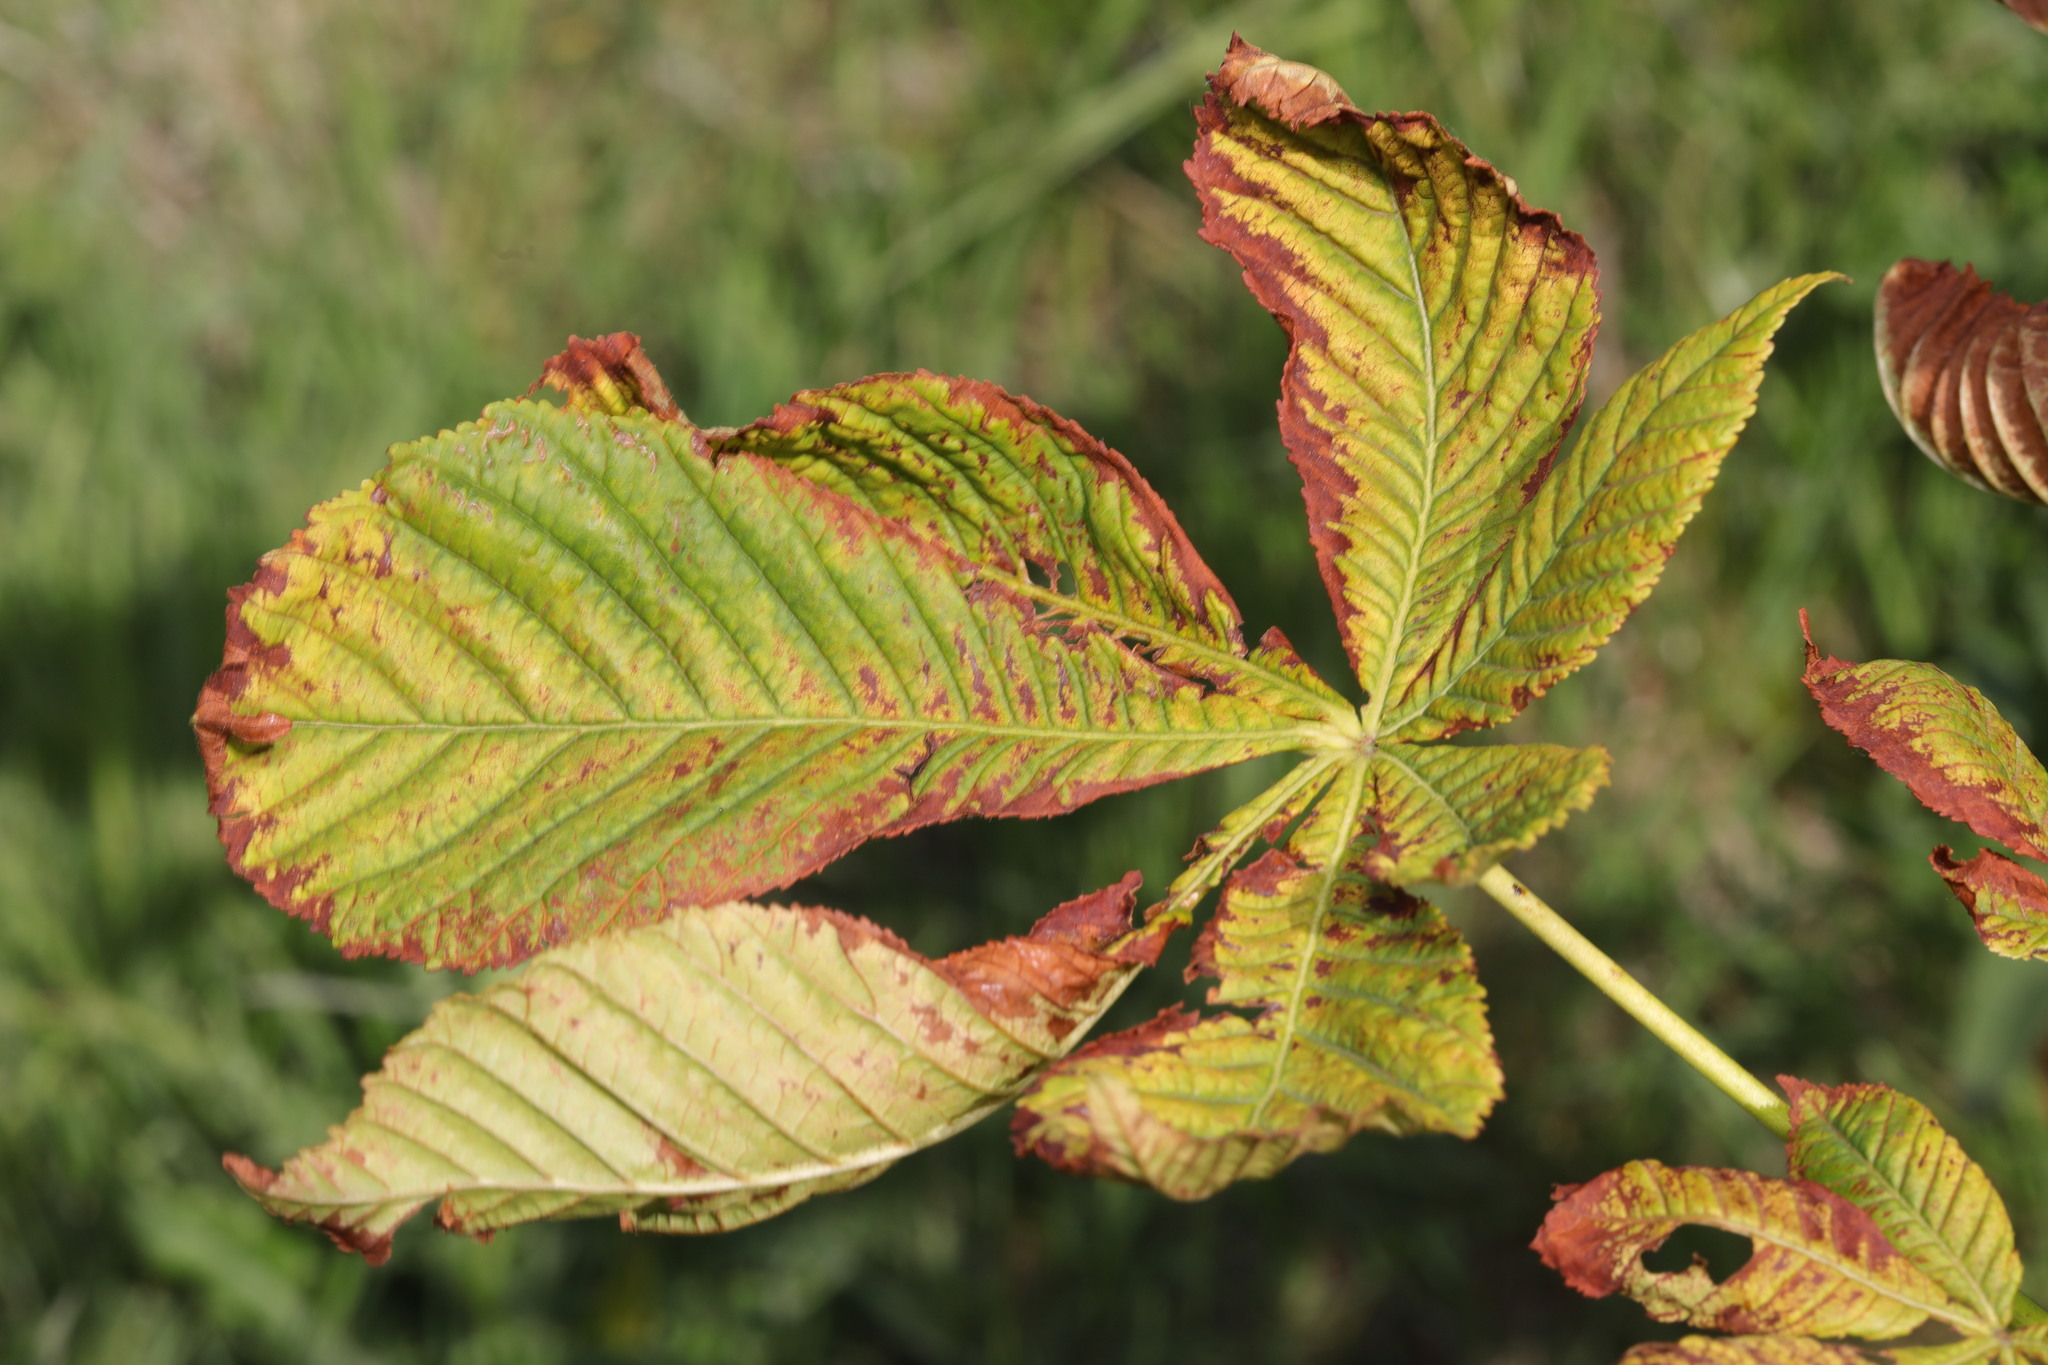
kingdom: Plantae
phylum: Tracheophyta
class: Magnoliopsida
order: Sapindales
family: Sapindaceae
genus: Aesculus
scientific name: Aesculus hippocastanum
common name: Horse-chestnut
